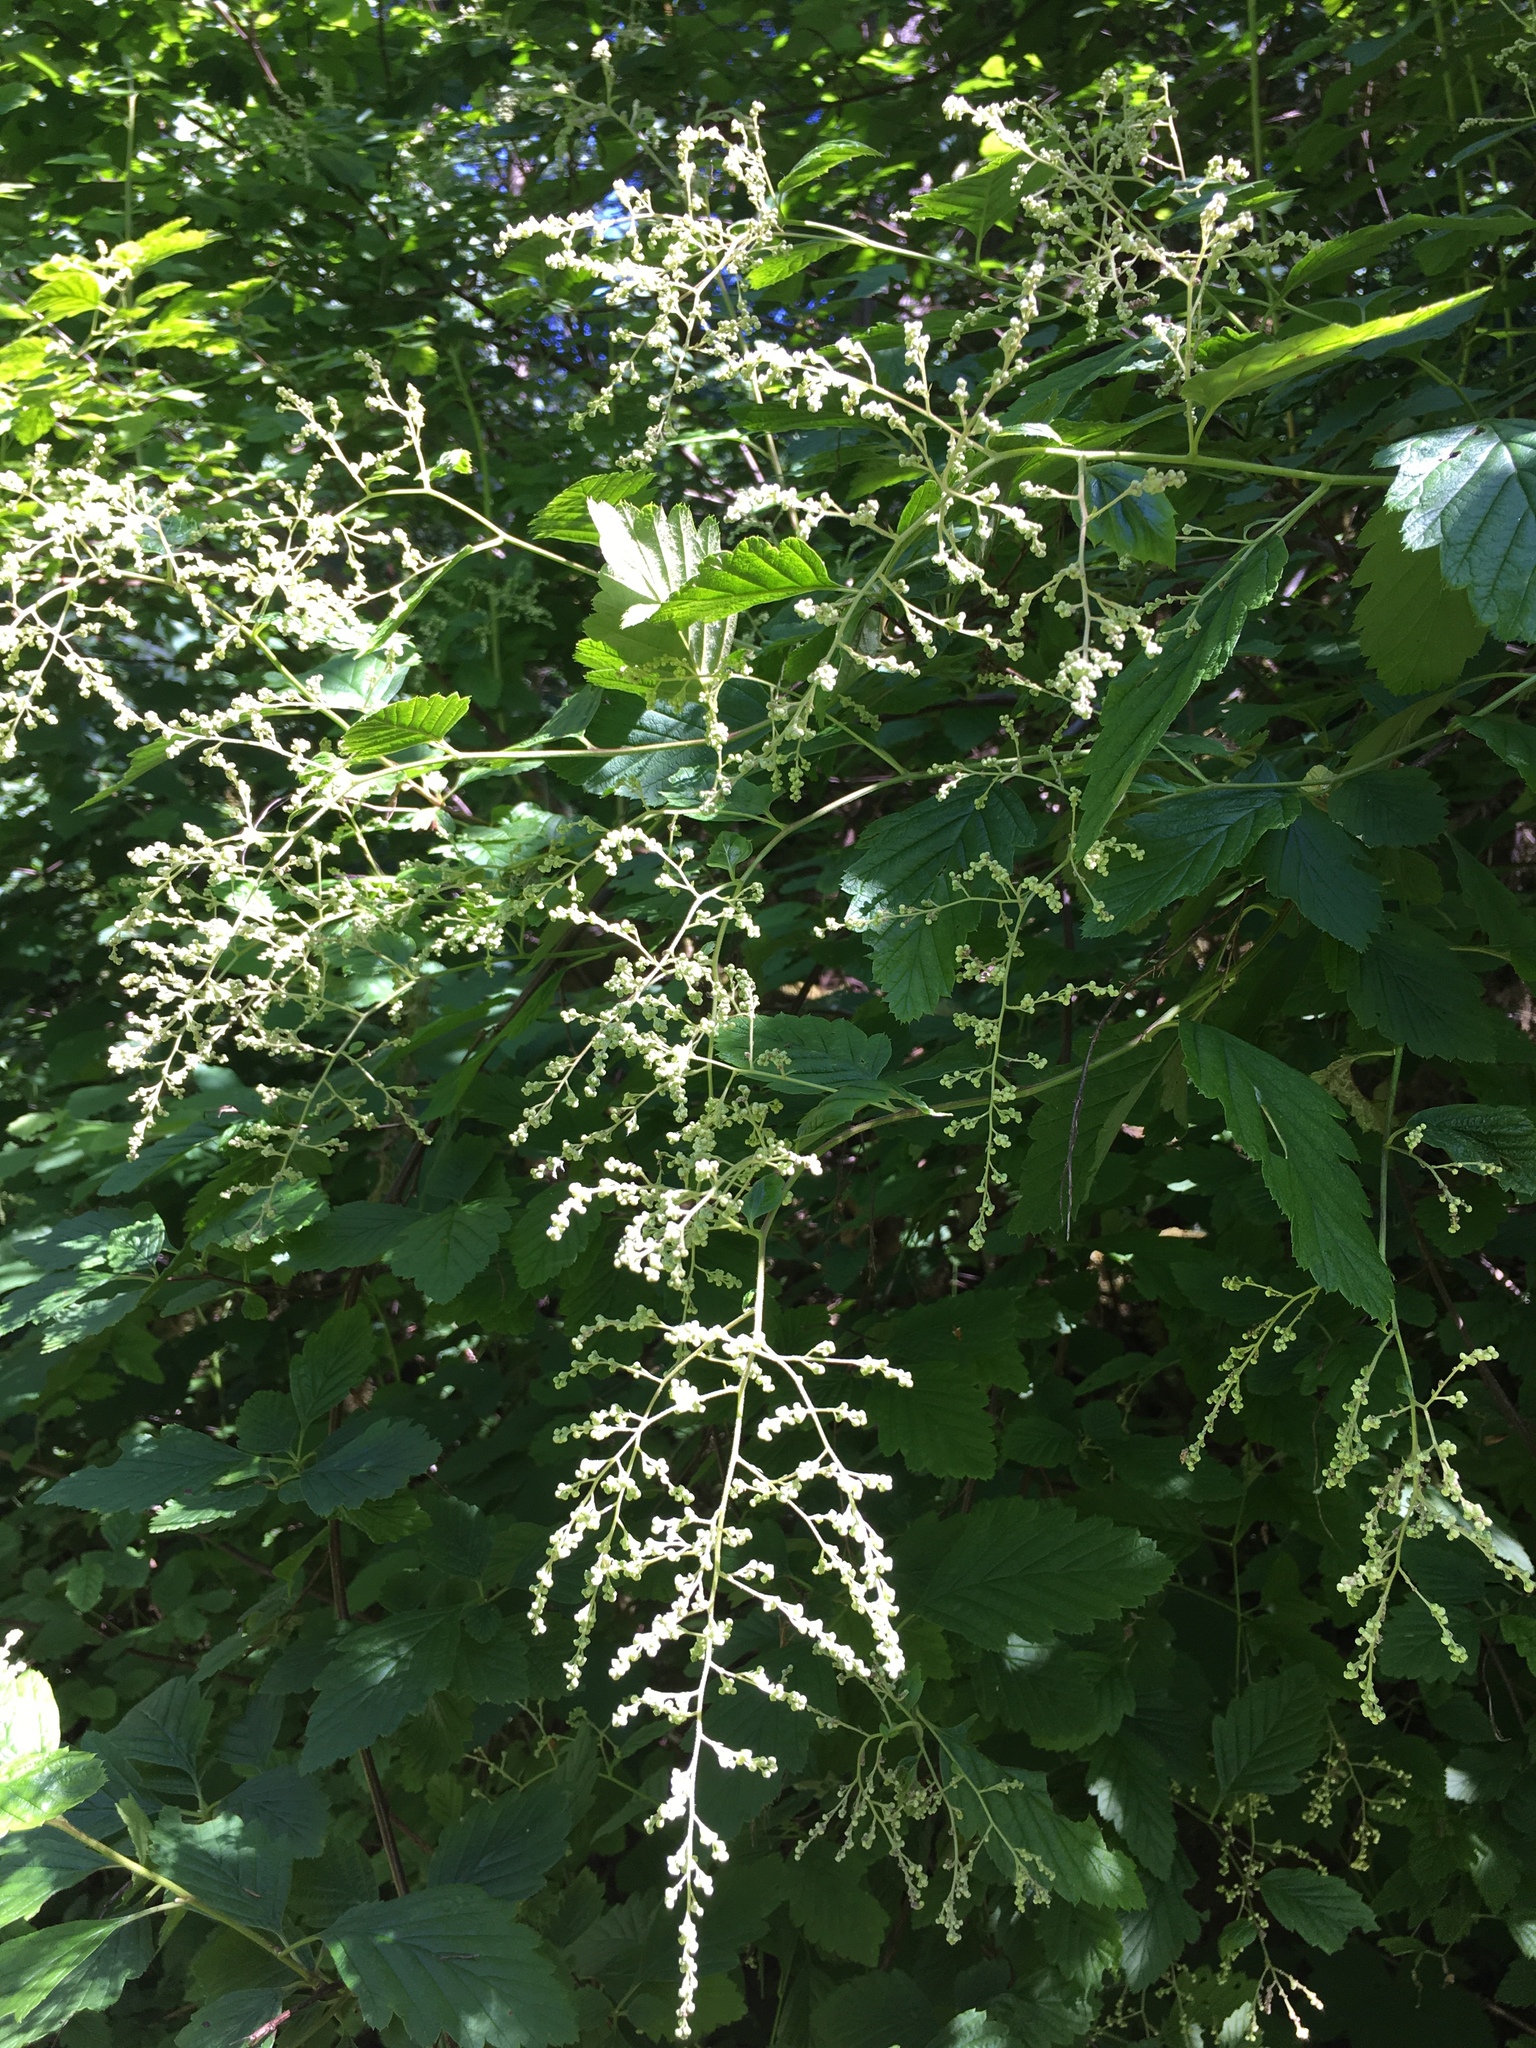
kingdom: Plantae
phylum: Tracheophyta
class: Magnoliopsida
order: Rosales
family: Rosaceae
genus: Holodiscus
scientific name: Holodiscus discolor
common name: Oceanspray
